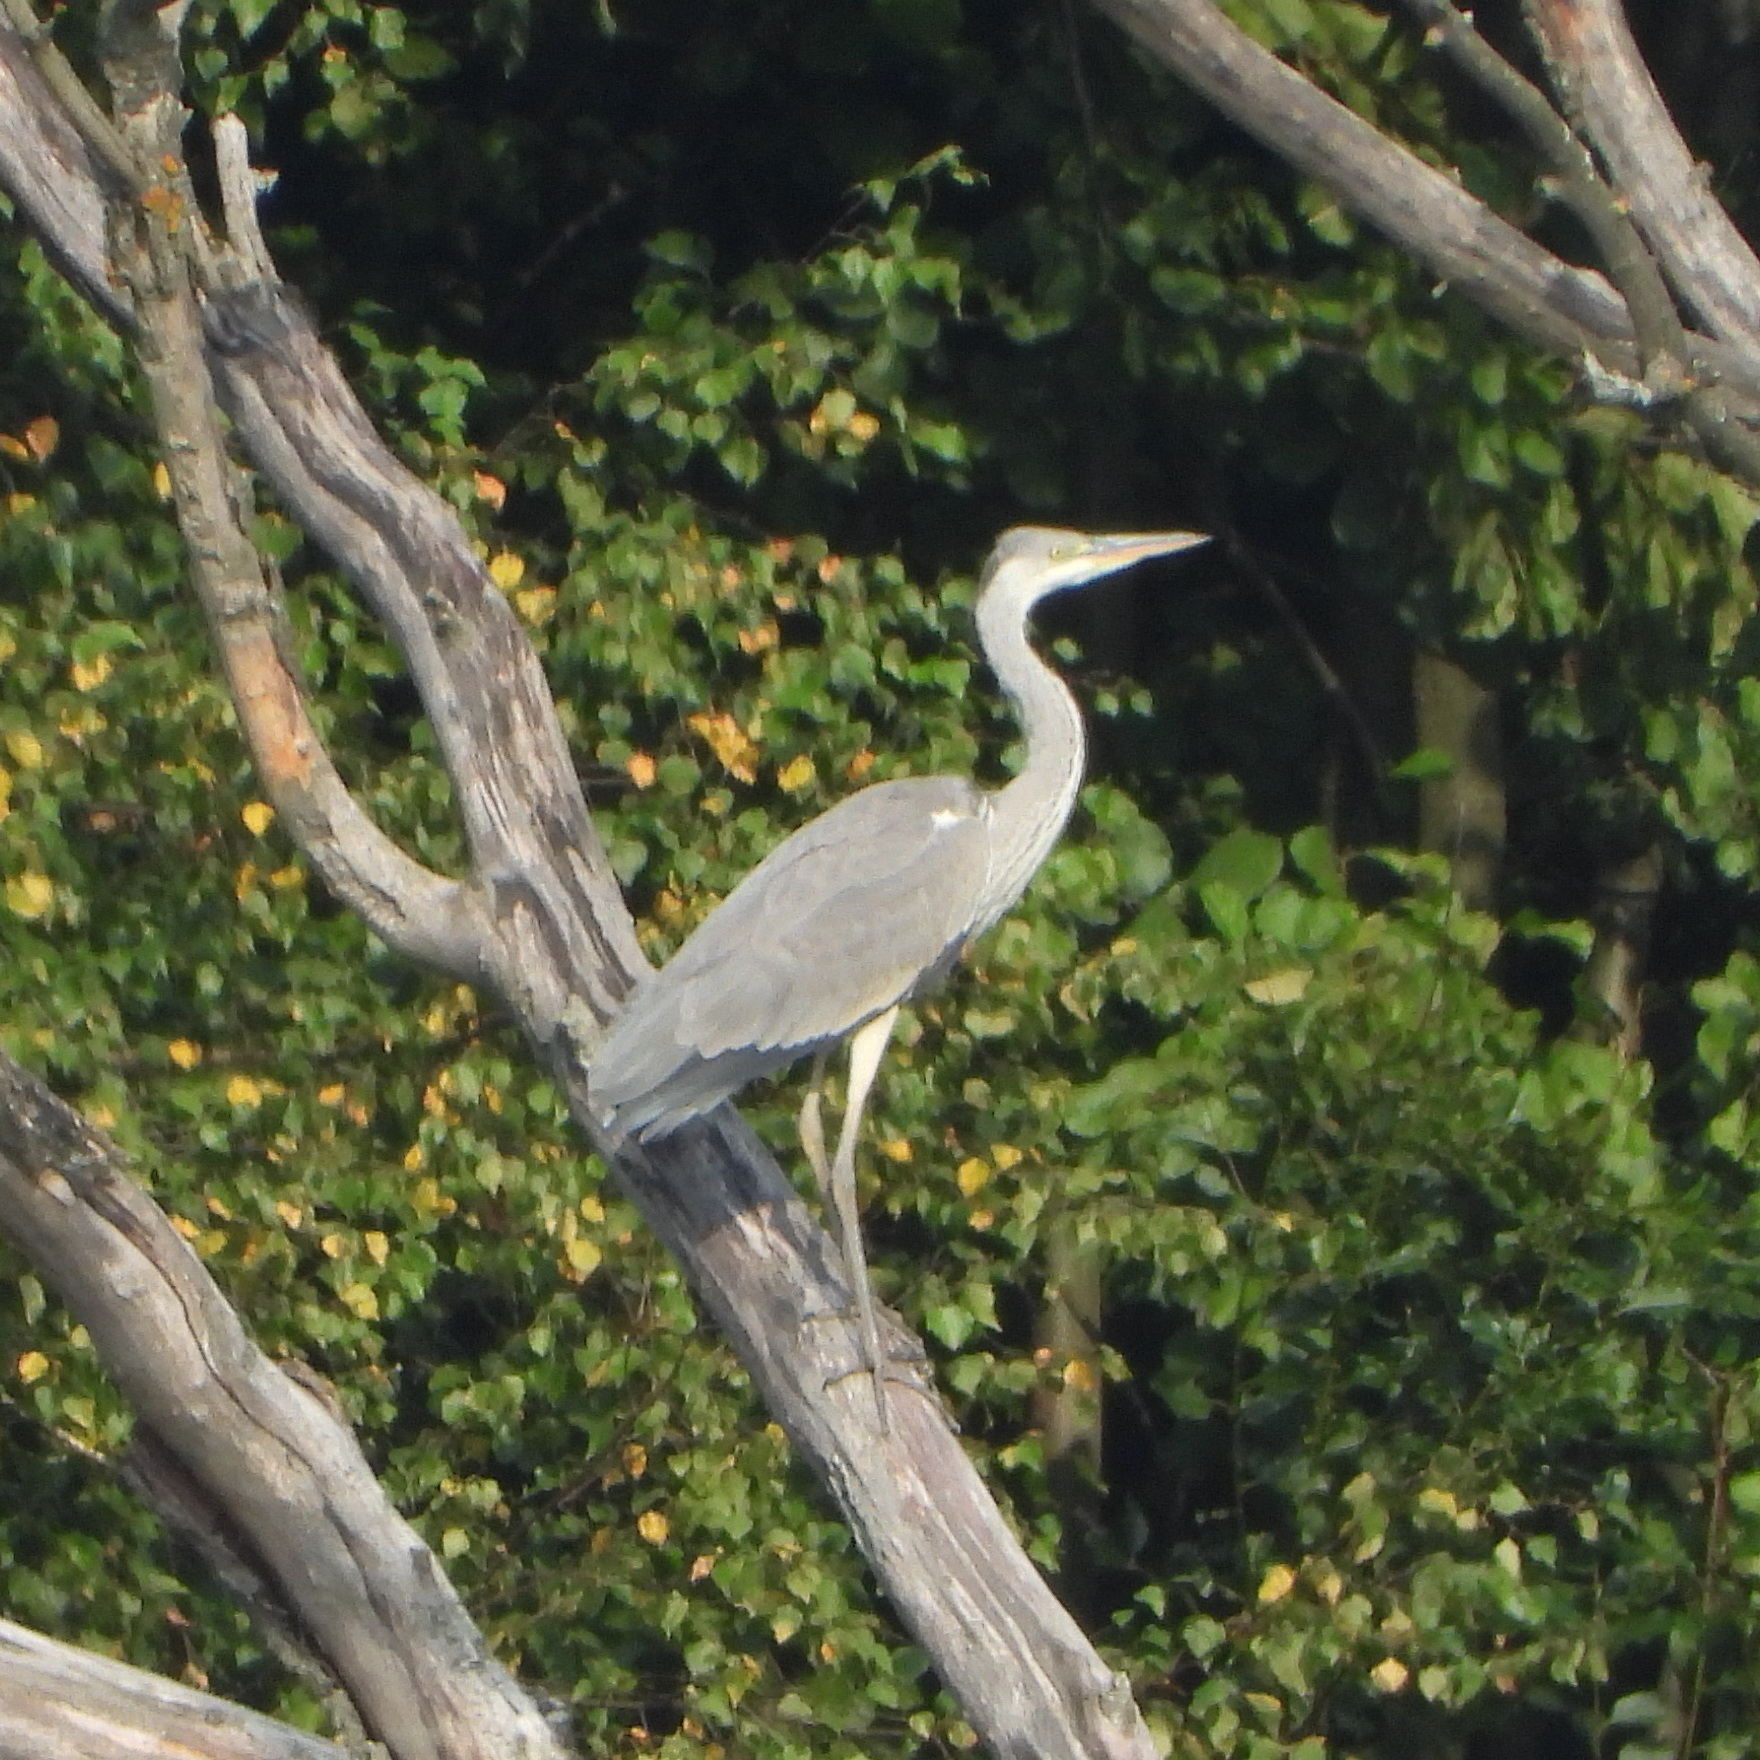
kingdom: Animalia
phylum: Chordata
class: Aves
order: Pelecaniformes
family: Ardeidae
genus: Ardea
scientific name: Ardea cinerea
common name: Grey heron
